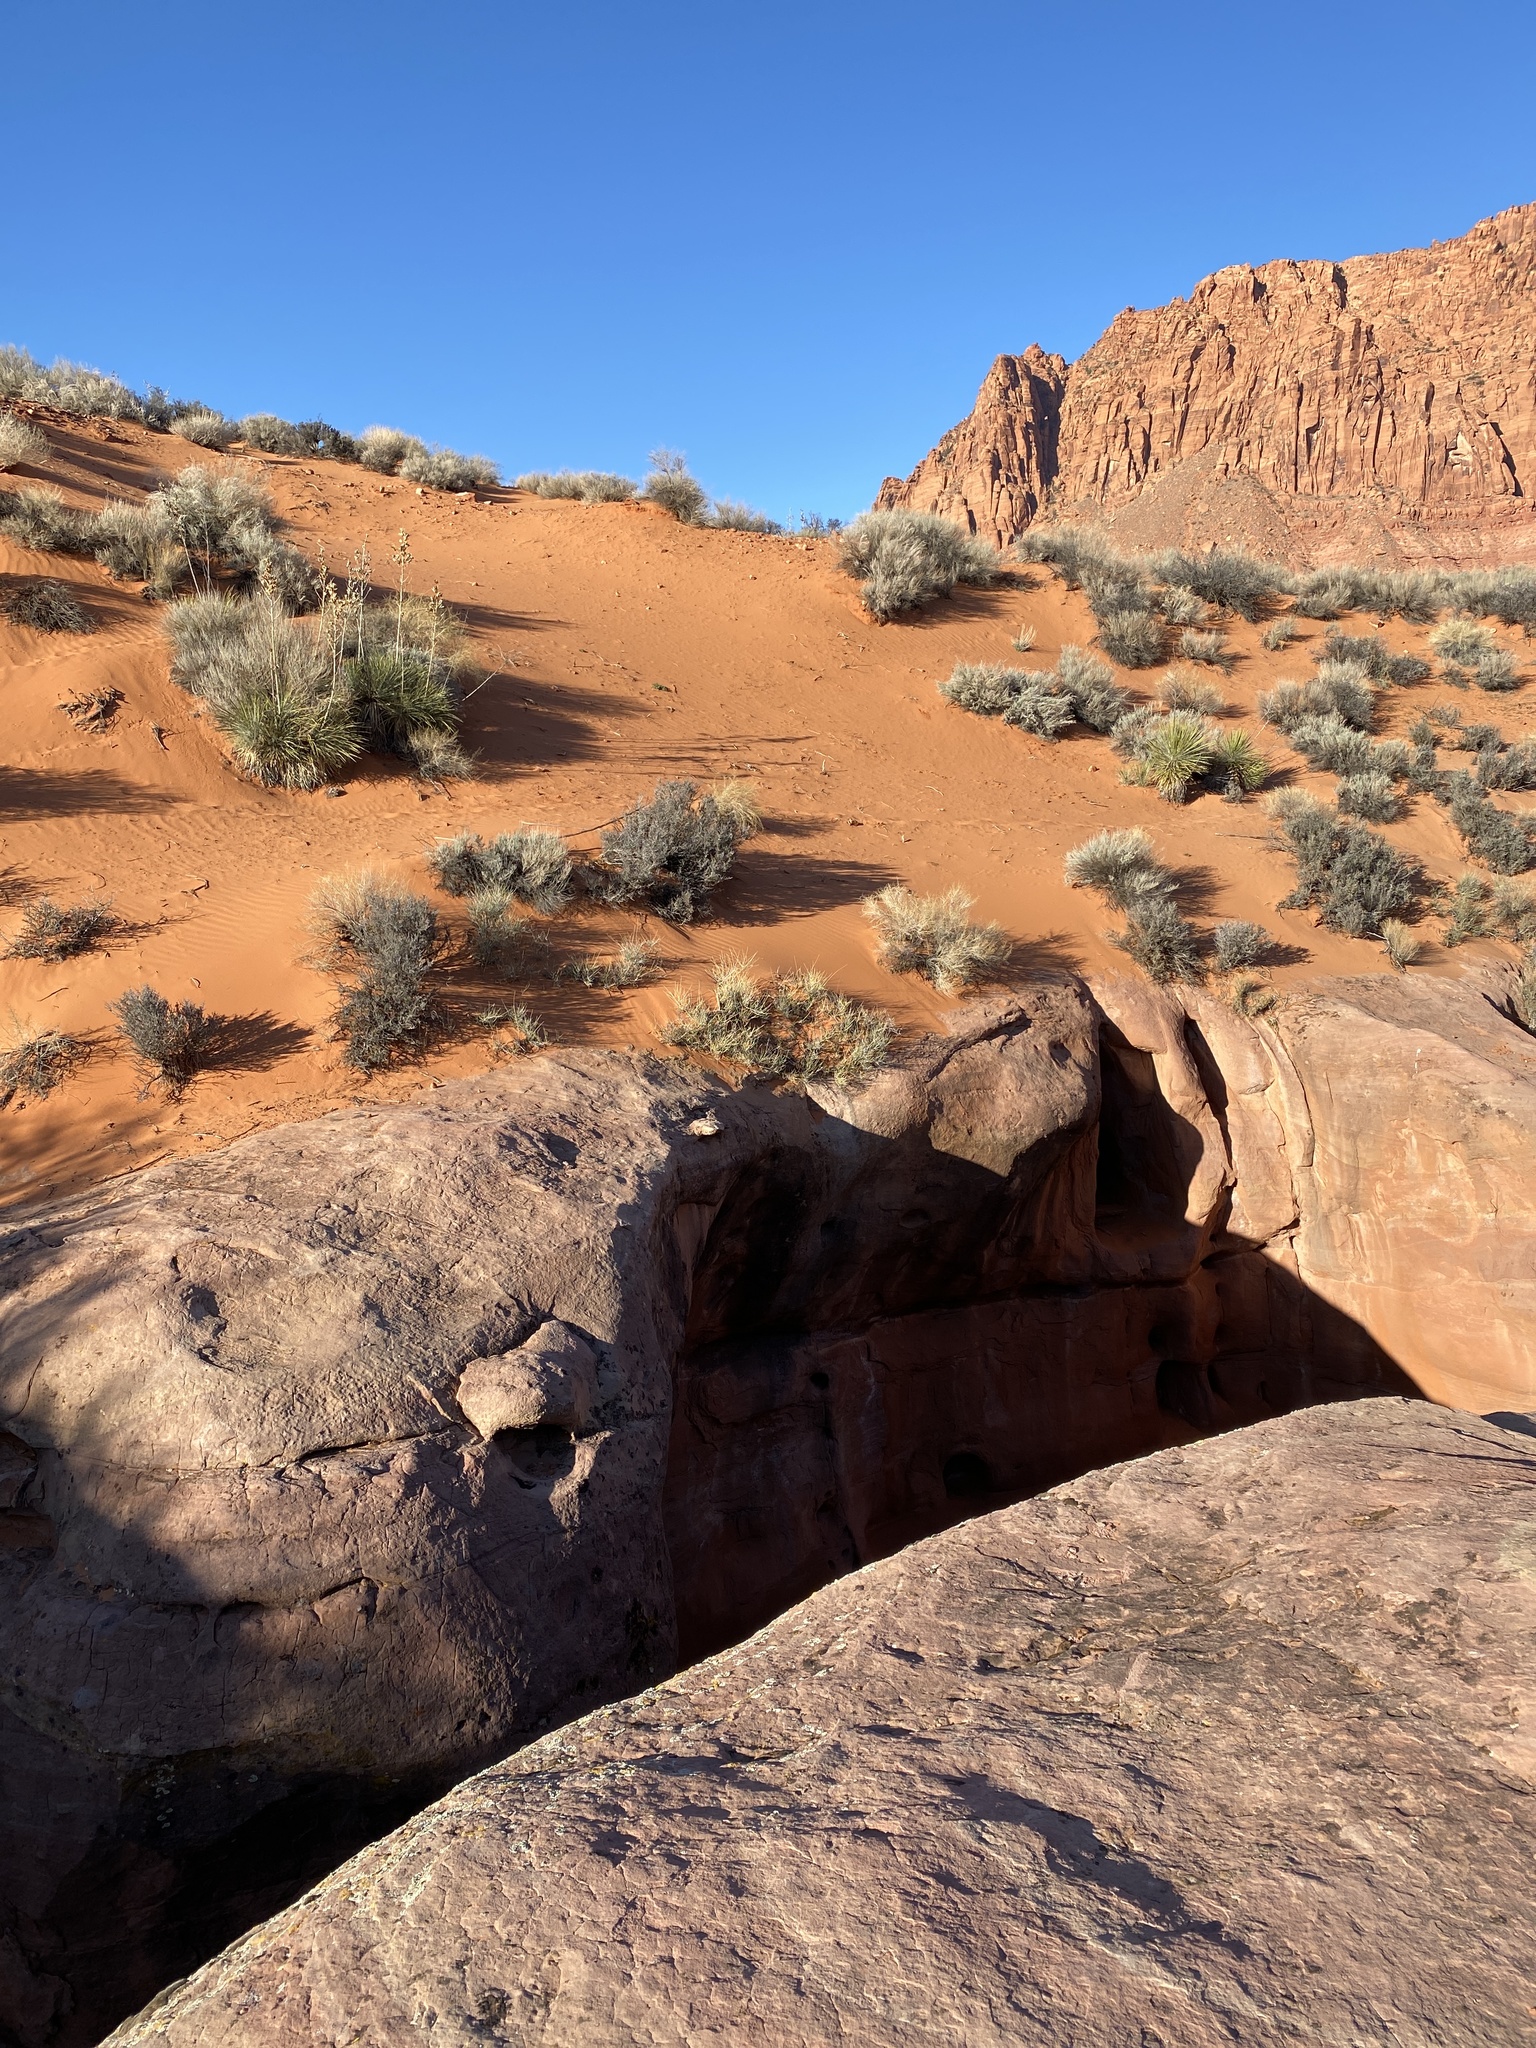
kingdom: Plantae
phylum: Tracheophyta
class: Liliopsida
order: Asparagales
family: Asparagaceae
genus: Yucca
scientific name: Yucca utahensis
